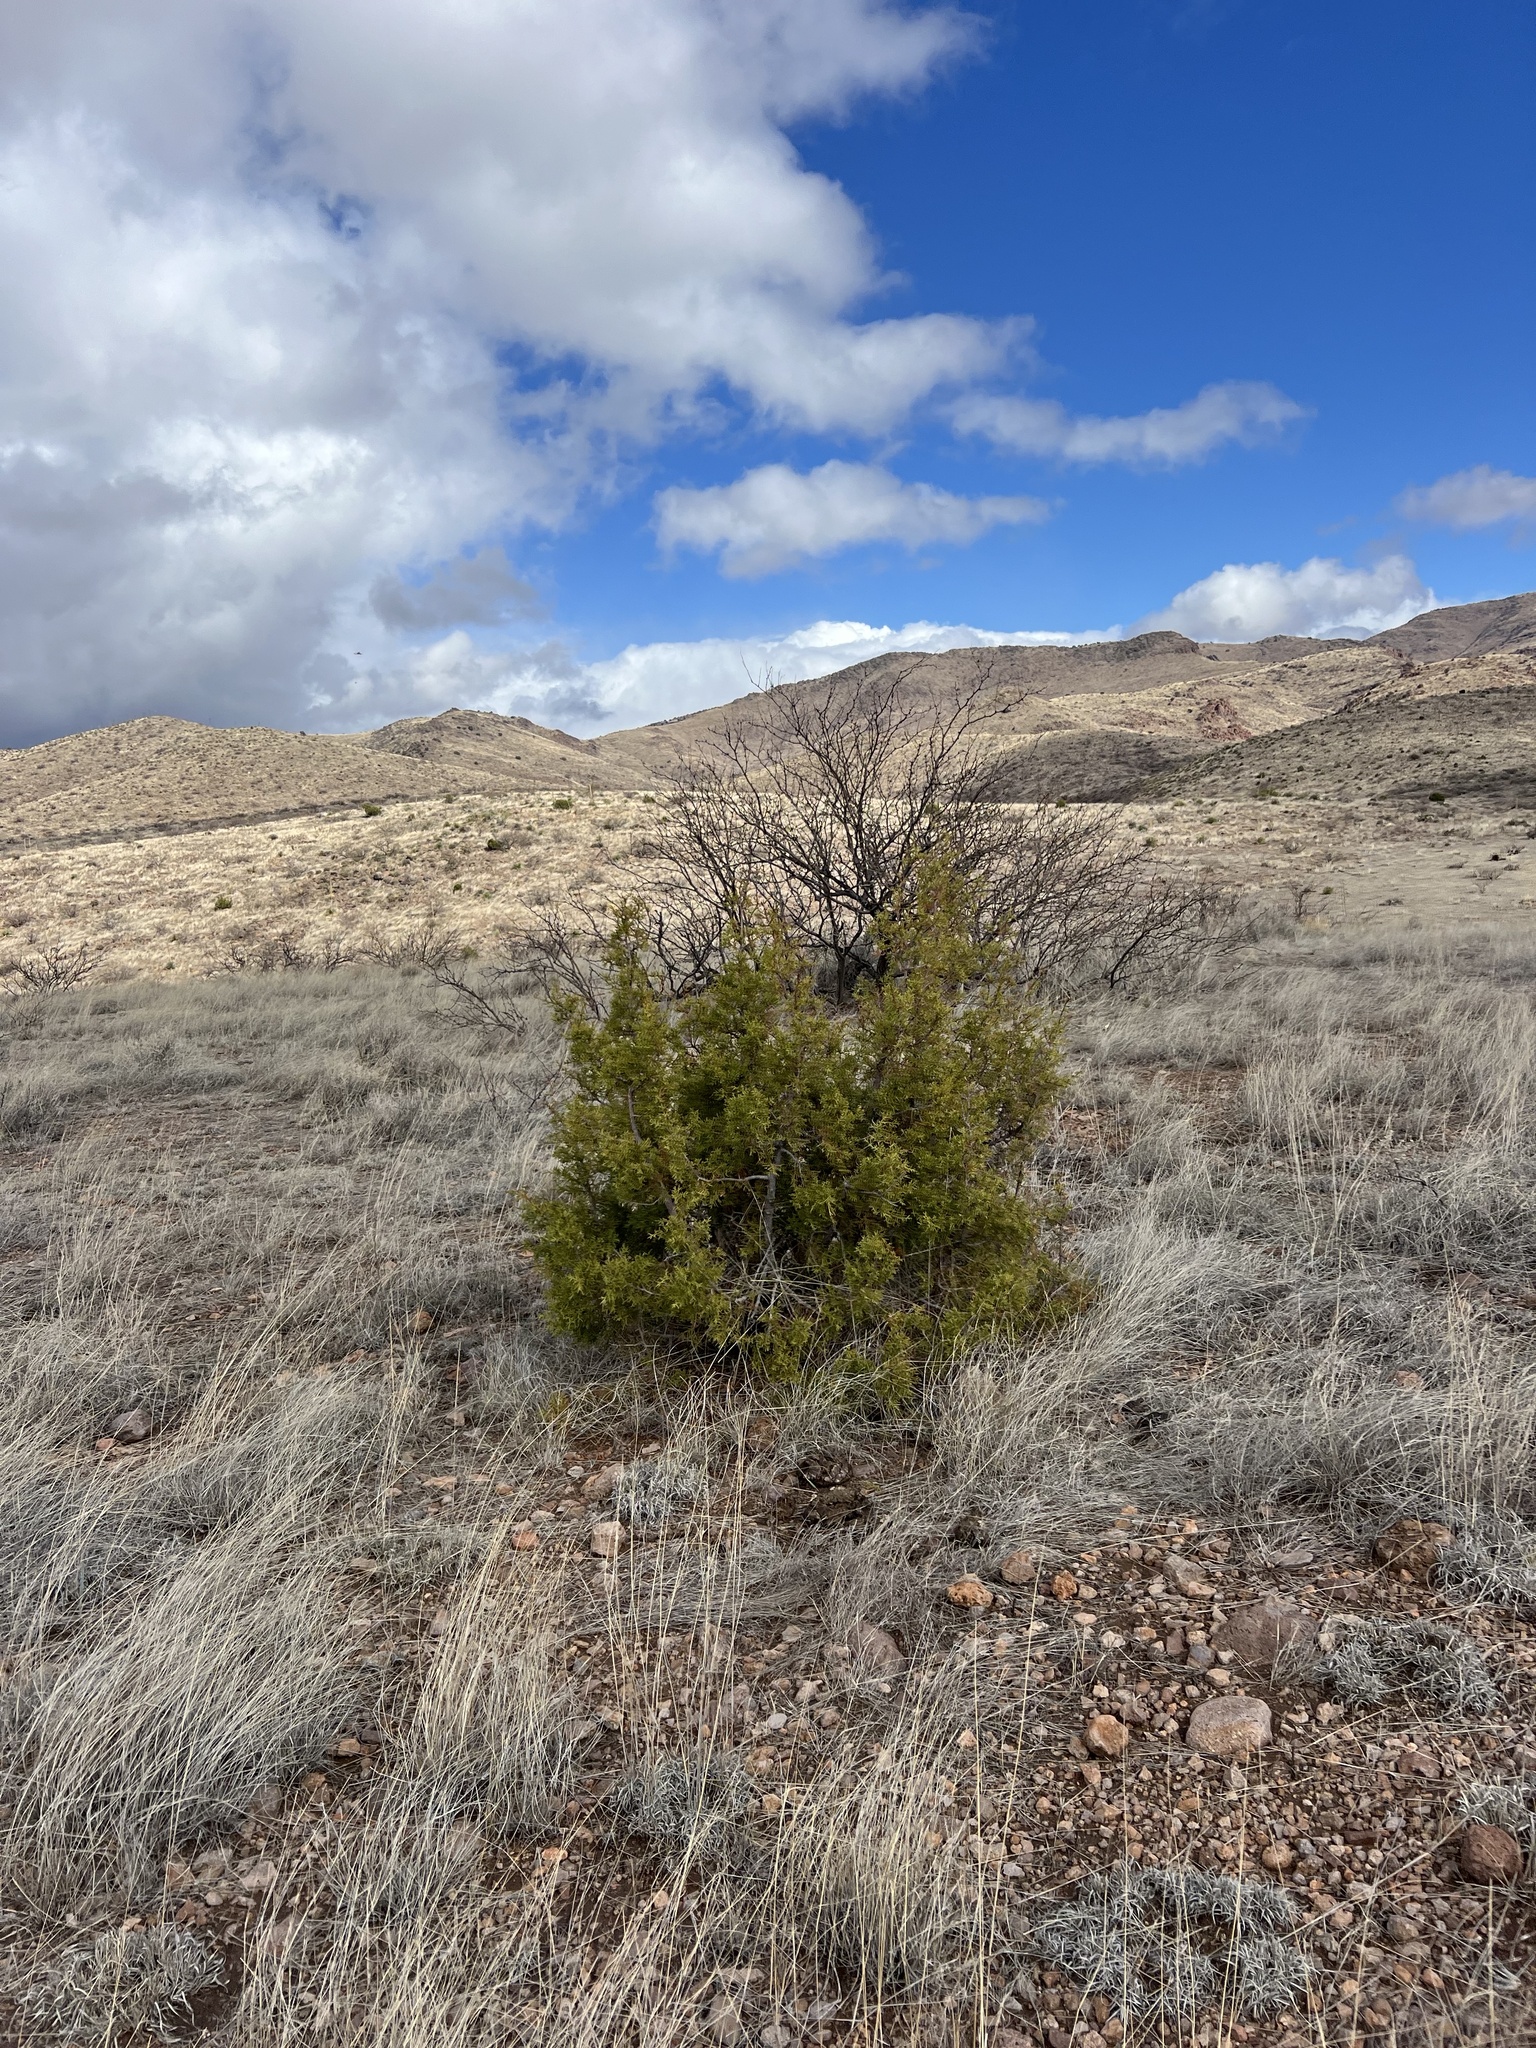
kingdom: Plantae
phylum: Tracheophyta
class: Pinopsida
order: Pinales
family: Cupressaceae
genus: Juniperus
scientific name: Juniperus arizonica
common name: Arizona juniper
